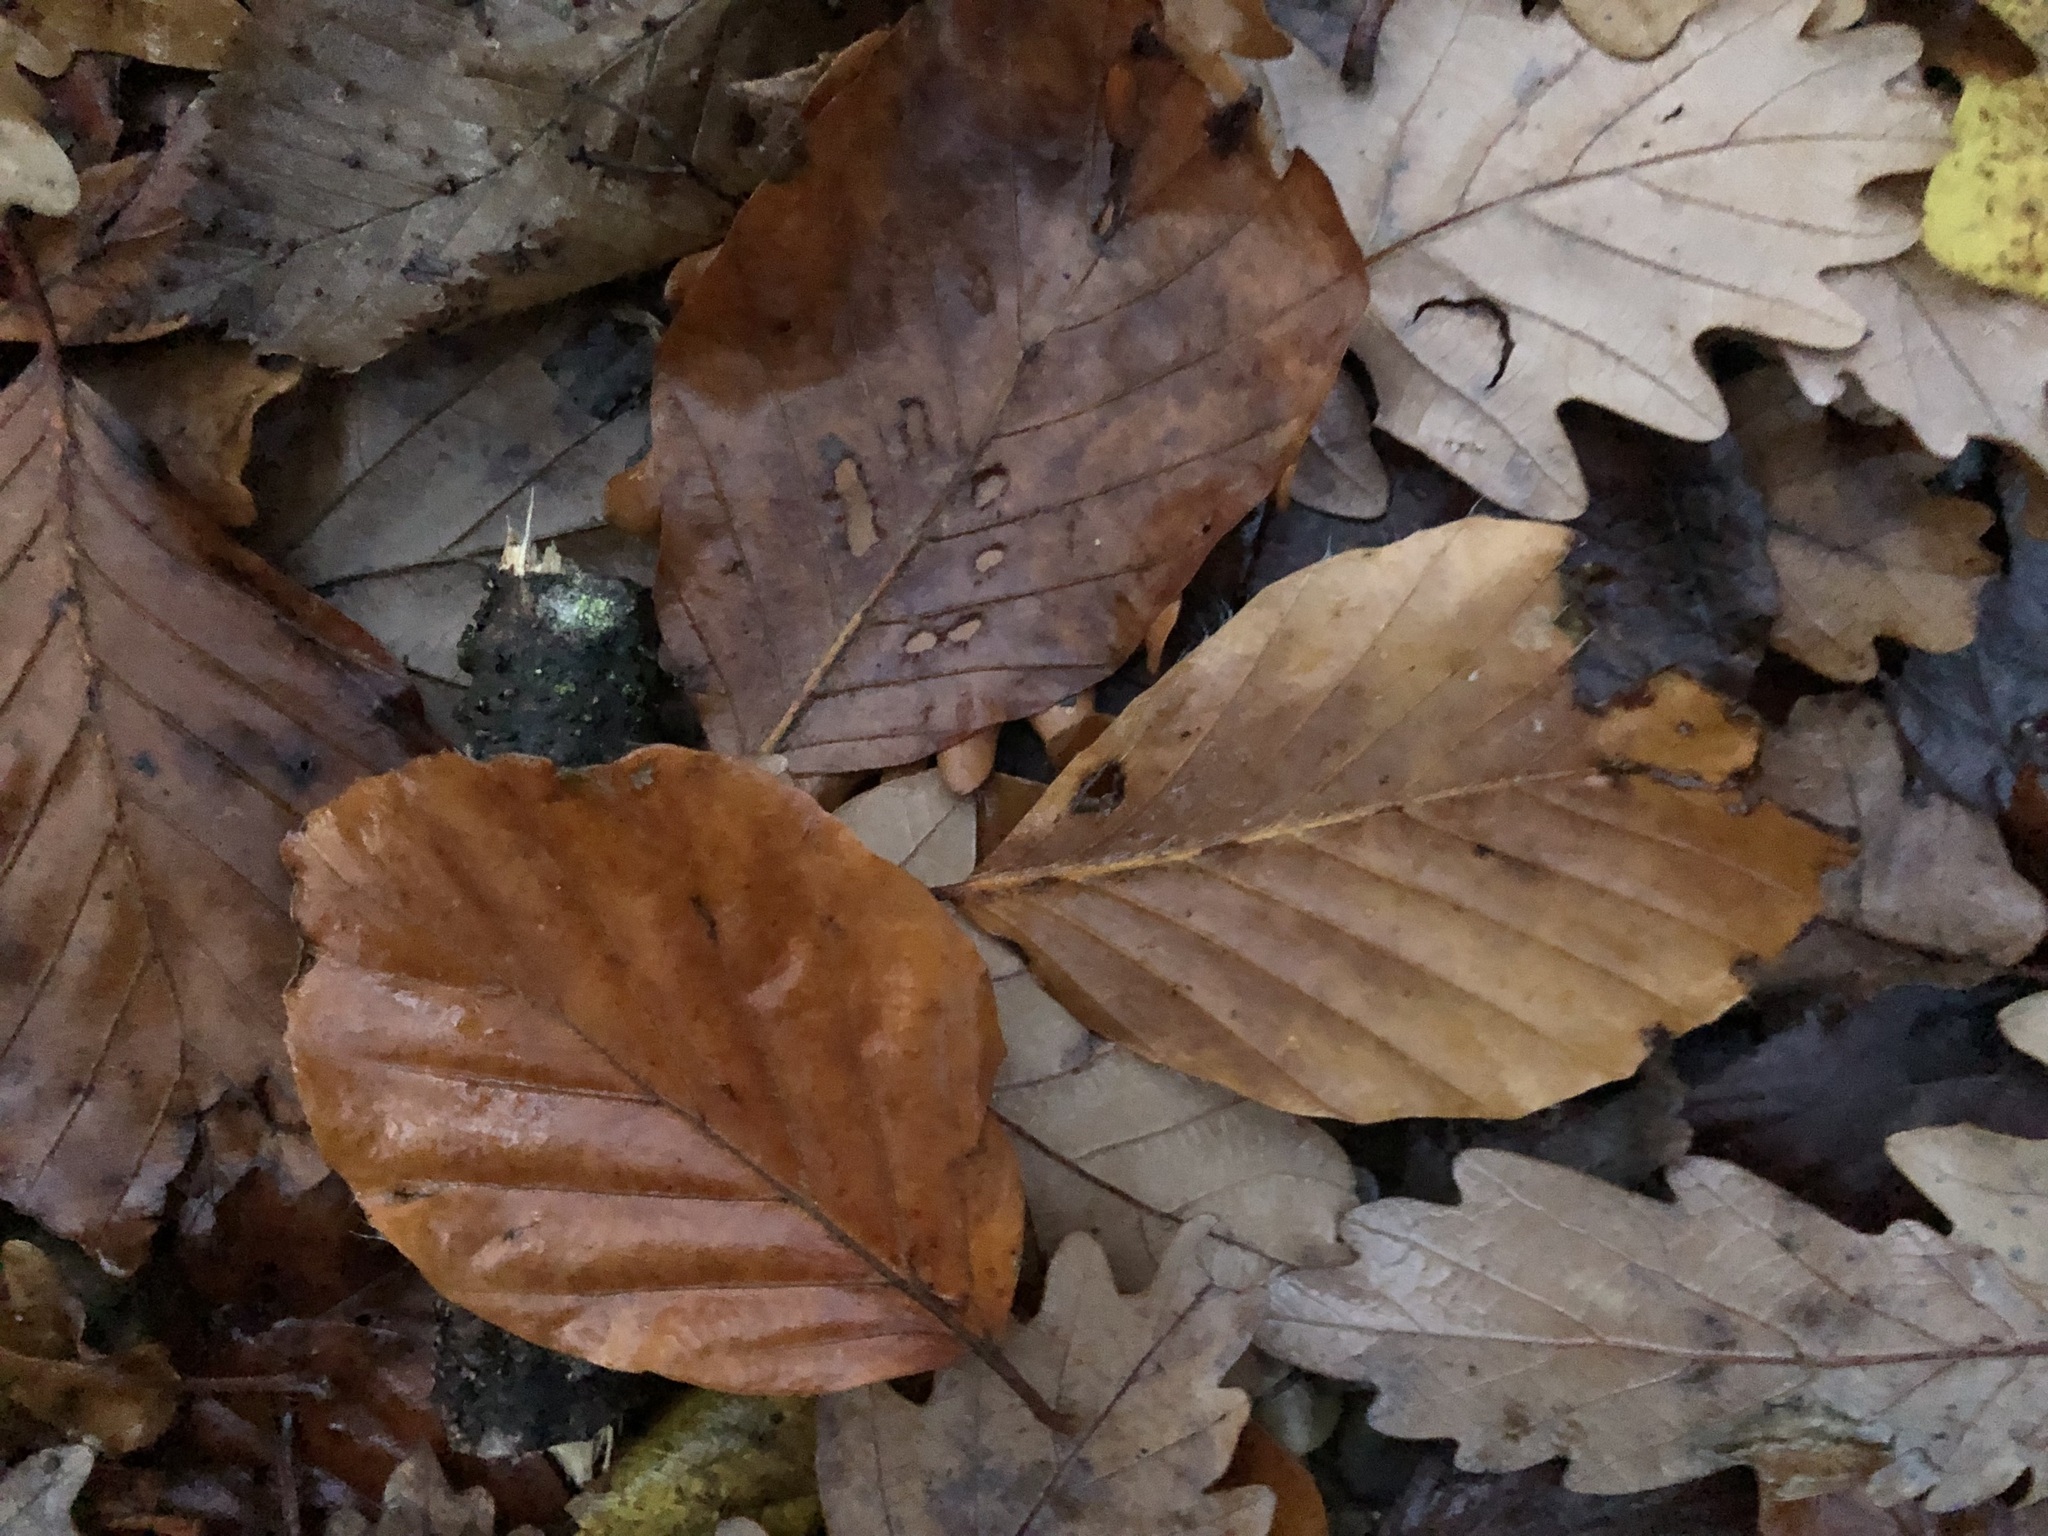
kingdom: Plantae
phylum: Tracheophyta
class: Magnoliopsida
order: Fagales
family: Fagaceae
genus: Fagus
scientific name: Fagus sylvatica
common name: Beech
